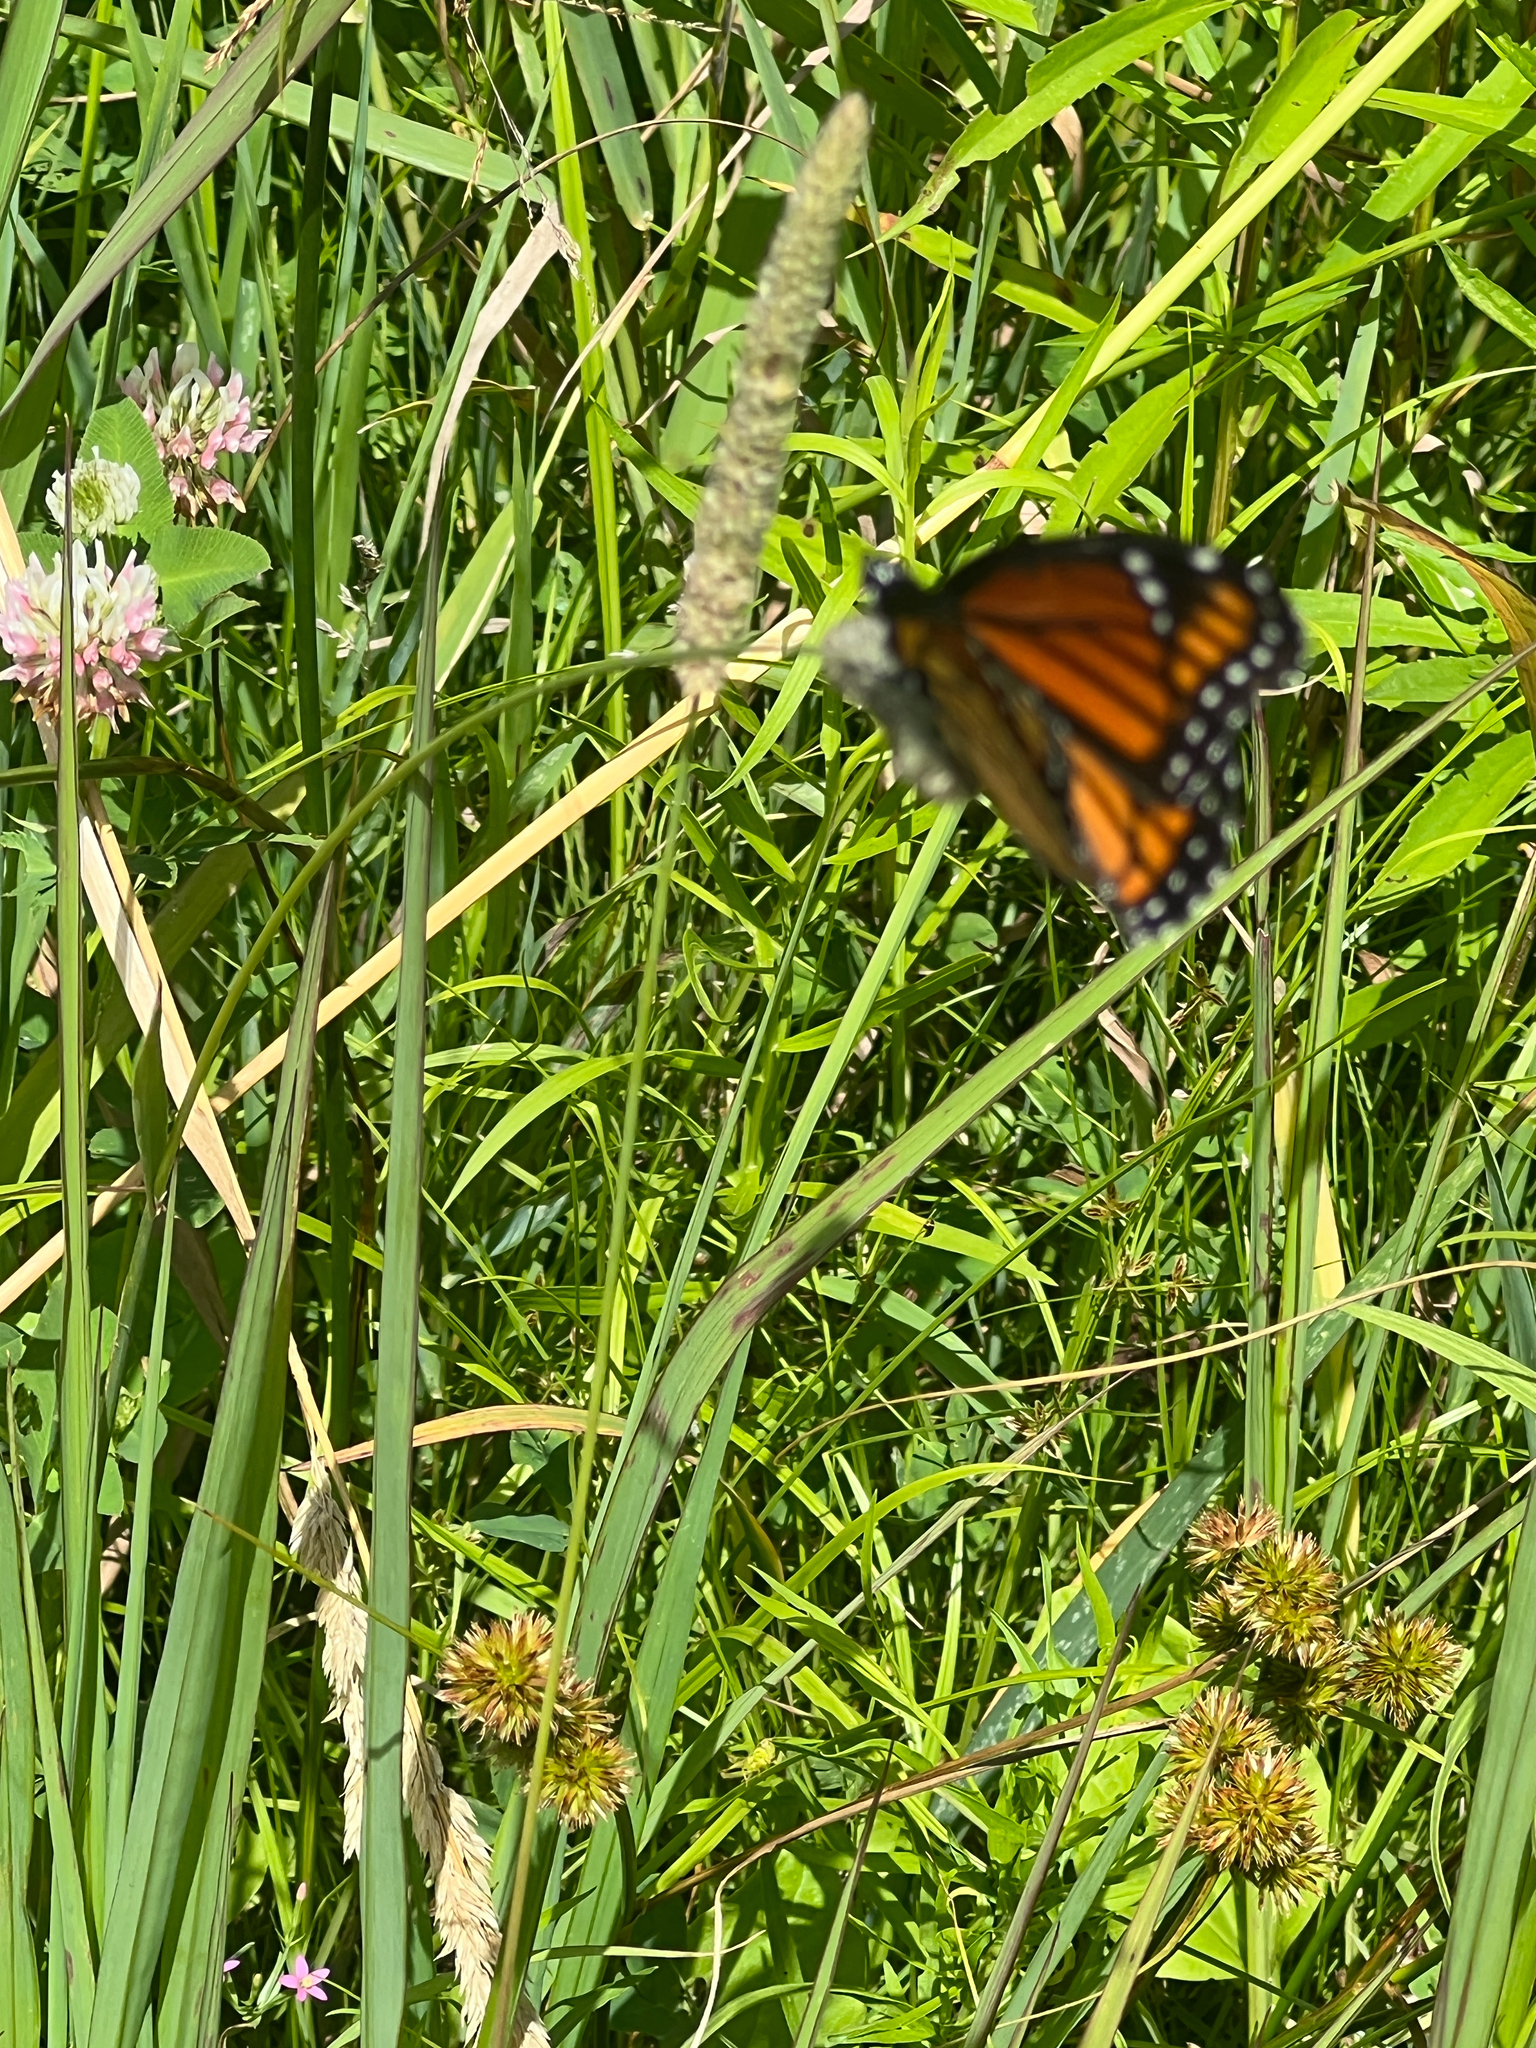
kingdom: Animalia
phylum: Arthropoda
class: Insecta
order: Lepidoptera
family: Nymphalidae
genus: Limenitis
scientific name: Limenitis archippus
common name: Viceroy
